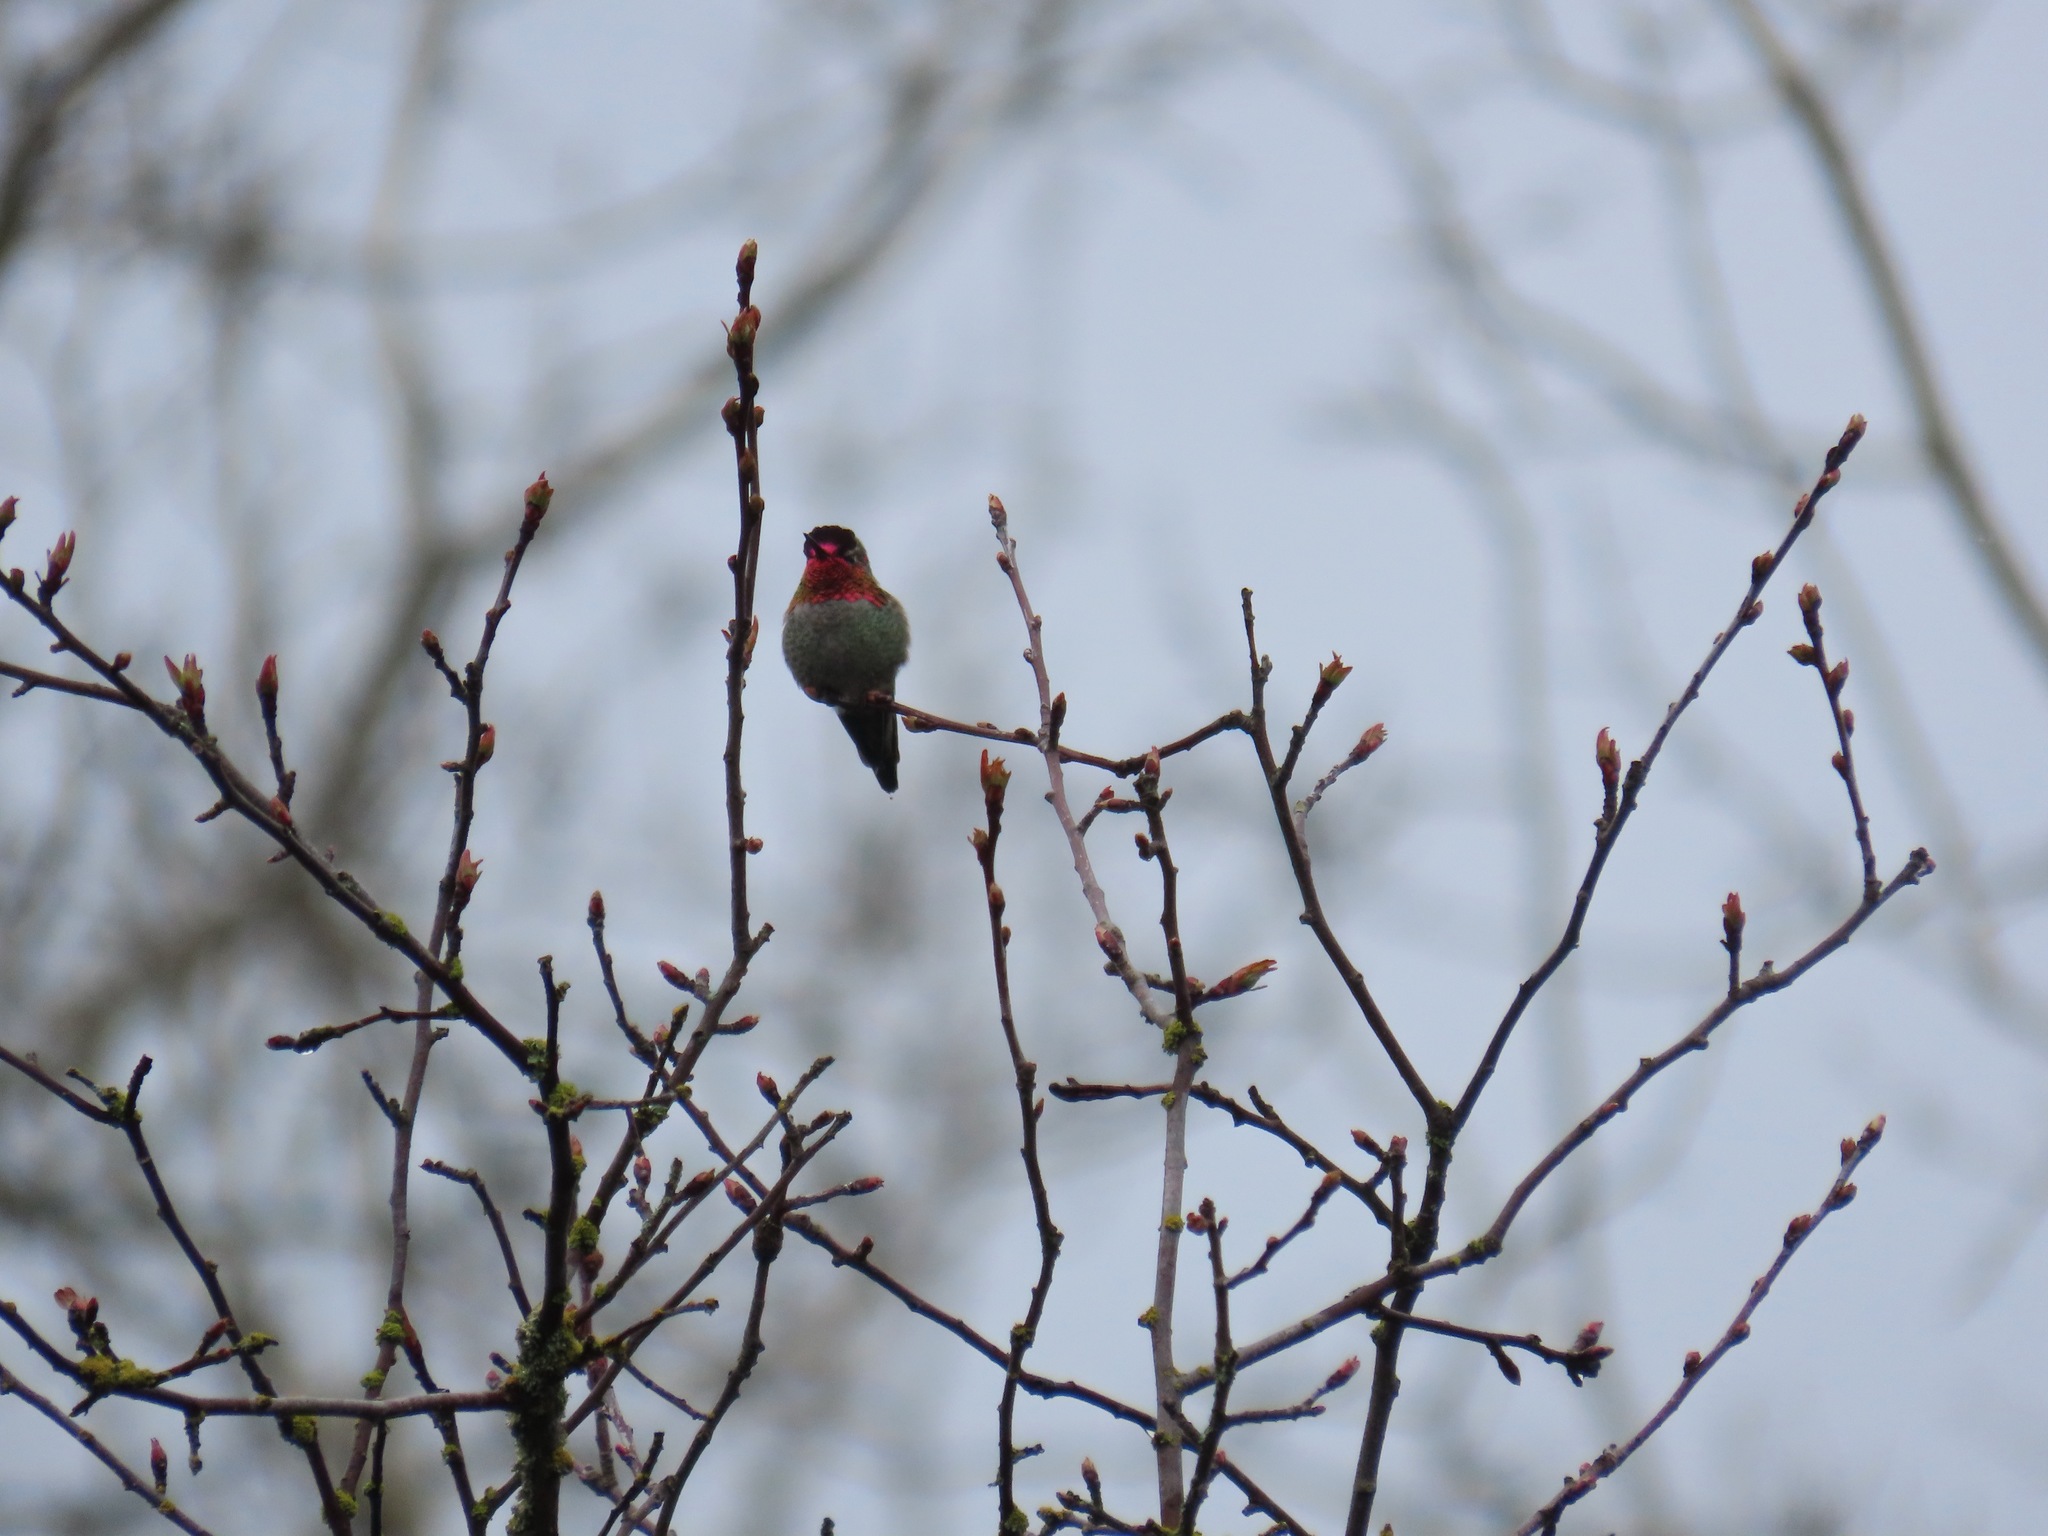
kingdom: Animalia
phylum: Chordata
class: Aves
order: Apodiformes
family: Trochilidae
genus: Calypte
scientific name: Calypte anna
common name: Anna's hummingbird
